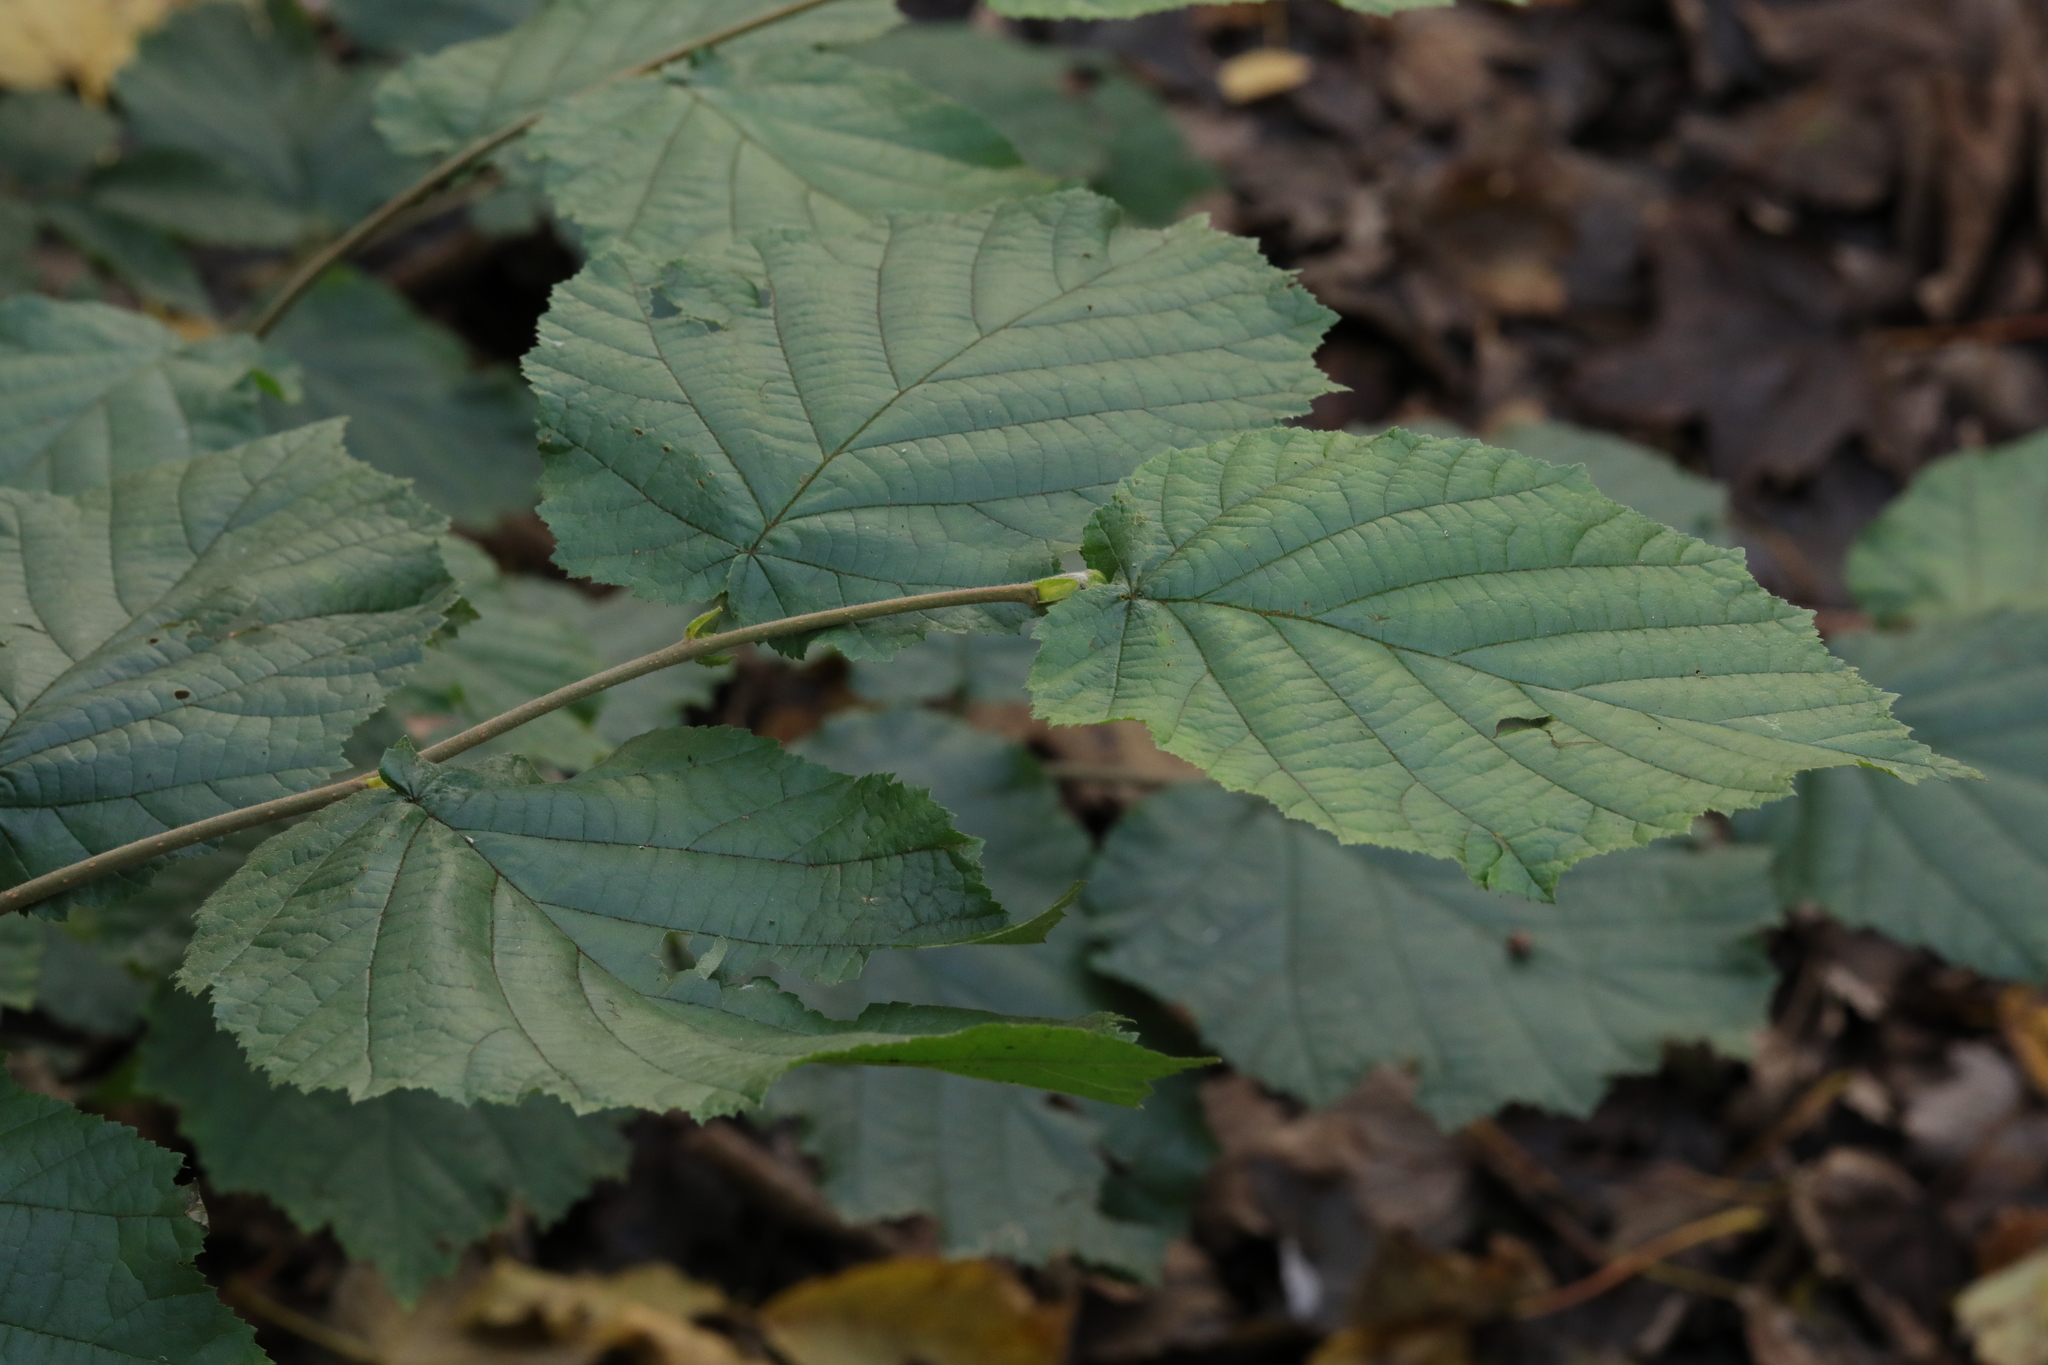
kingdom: Plantae
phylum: Tracheophyta
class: Magnoliopsida
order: Fagales
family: Betulaceae
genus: Corylus
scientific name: Corylus avellana
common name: European hazel
